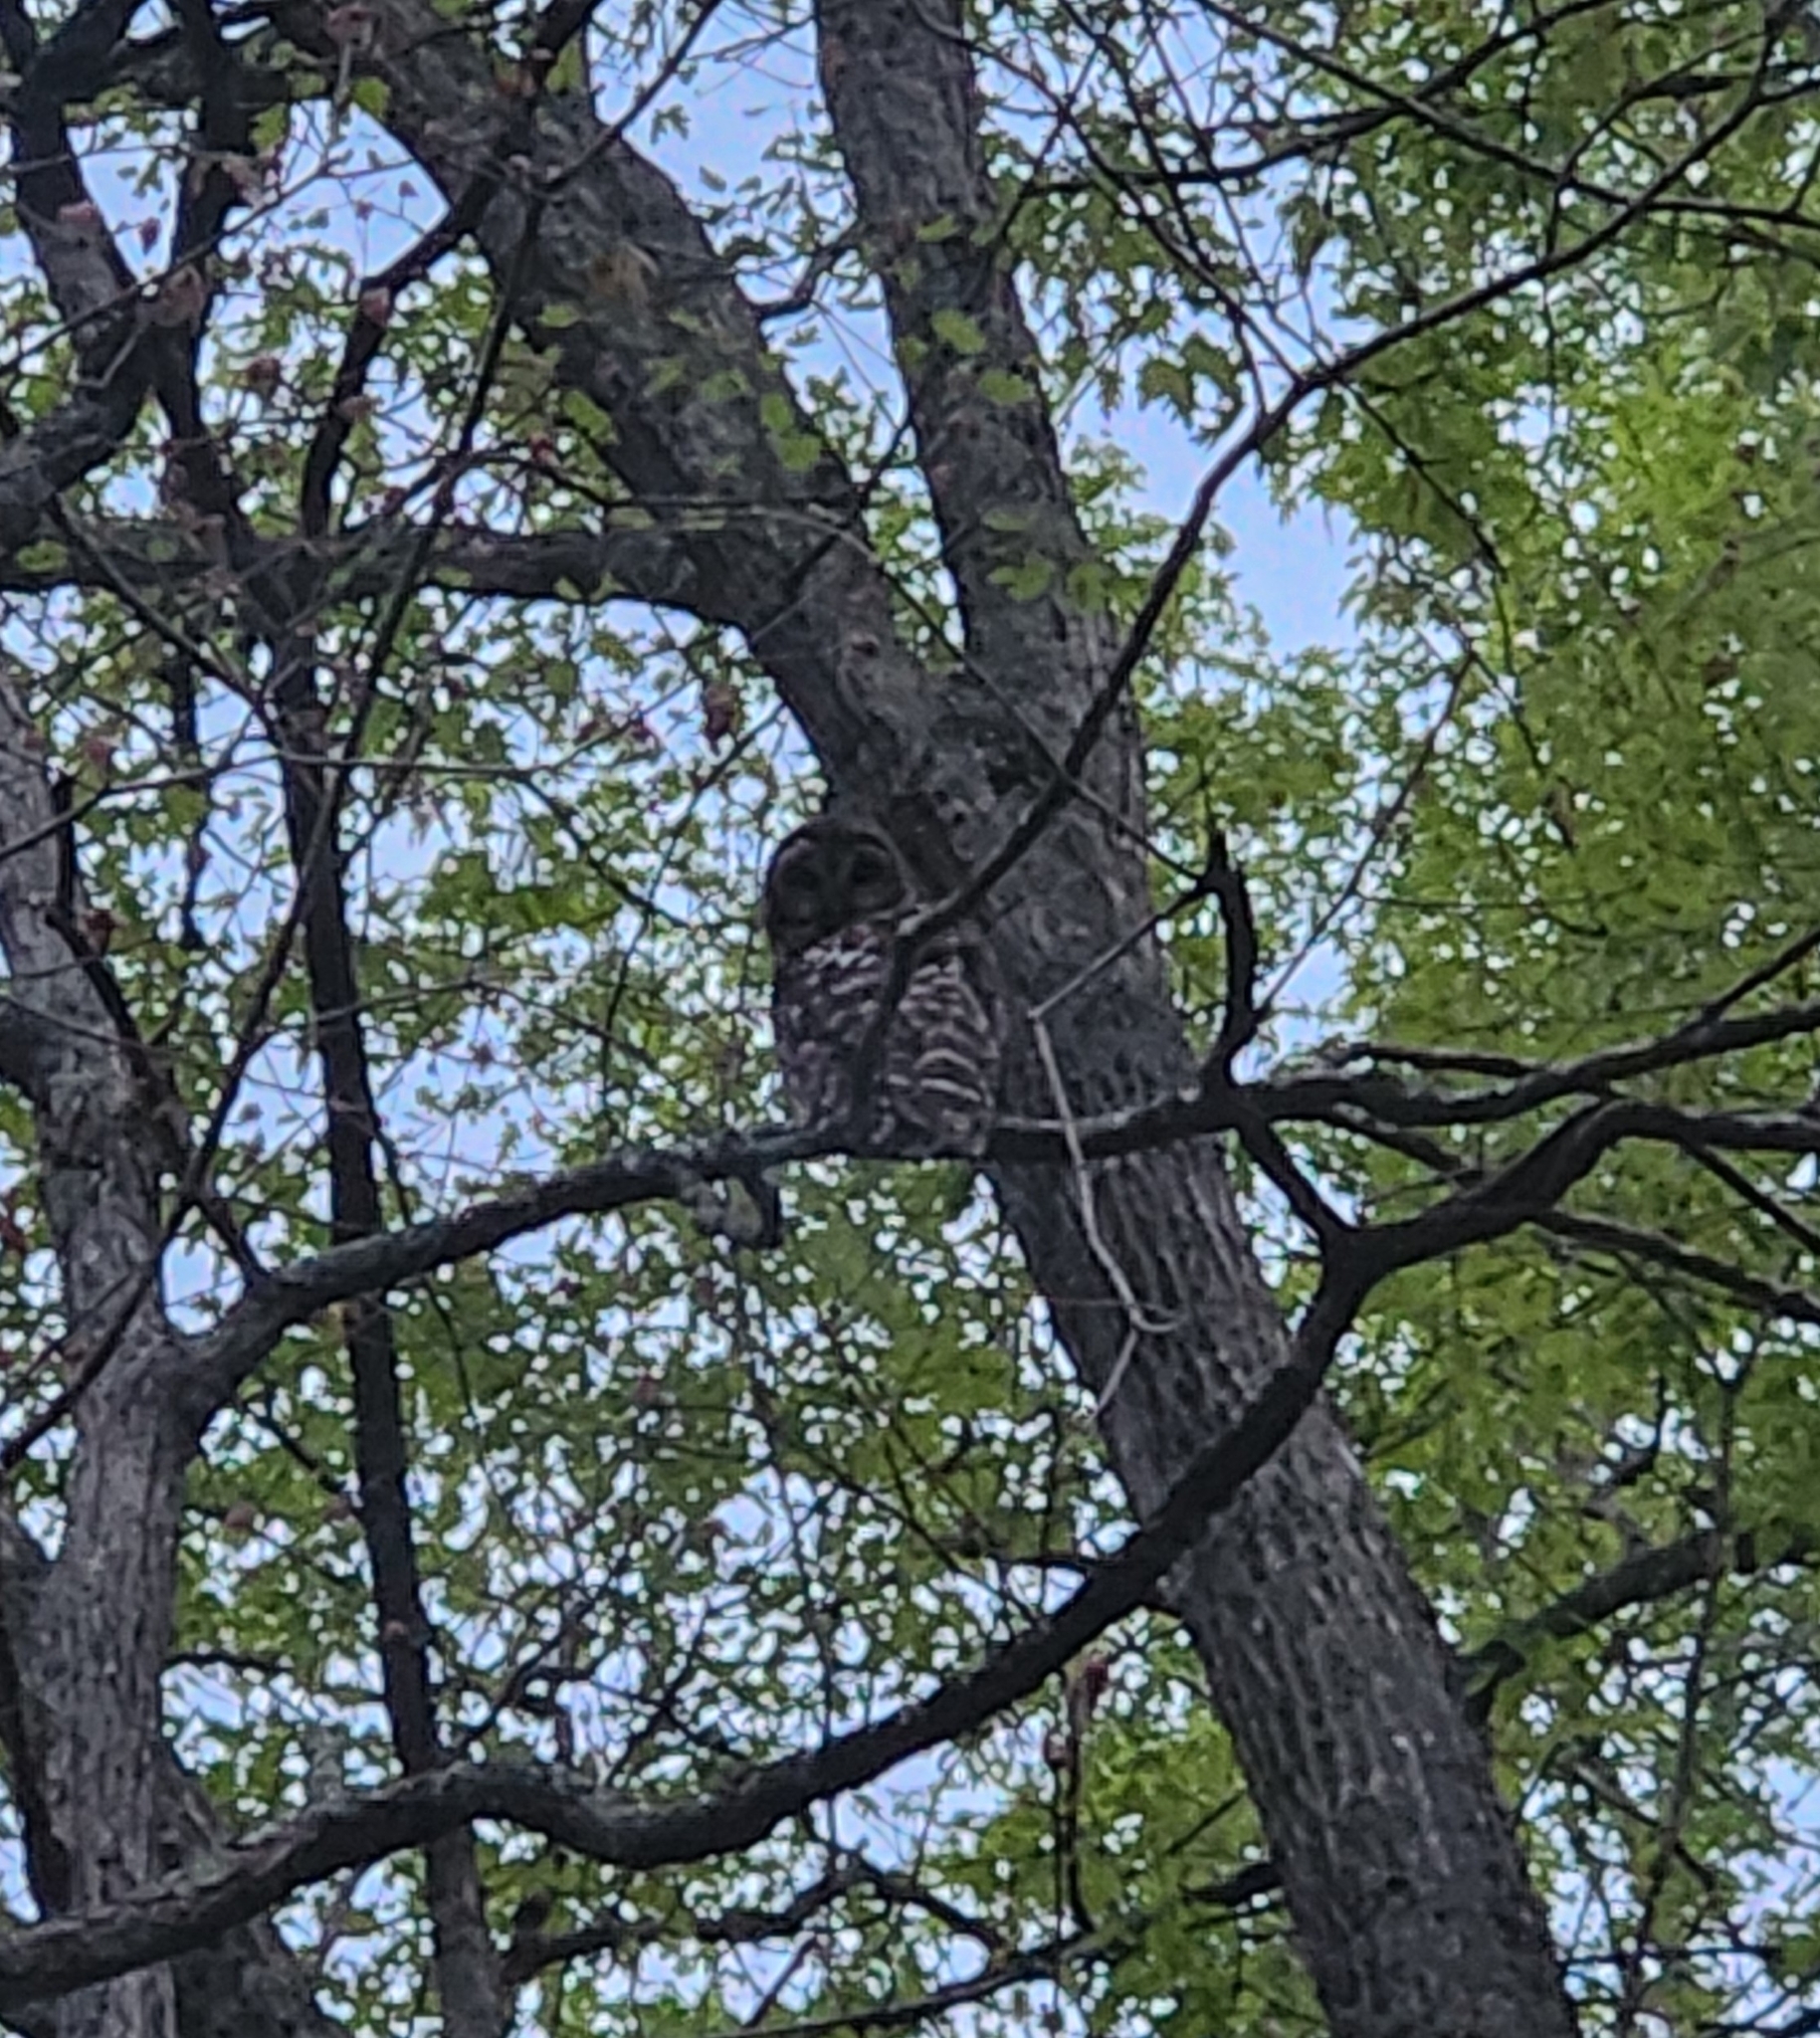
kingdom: Animalia
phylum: Chordata
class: Aves
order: Strigiformes
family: Strigidae
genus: Strix
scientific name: Strix varia
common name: Barred owl
